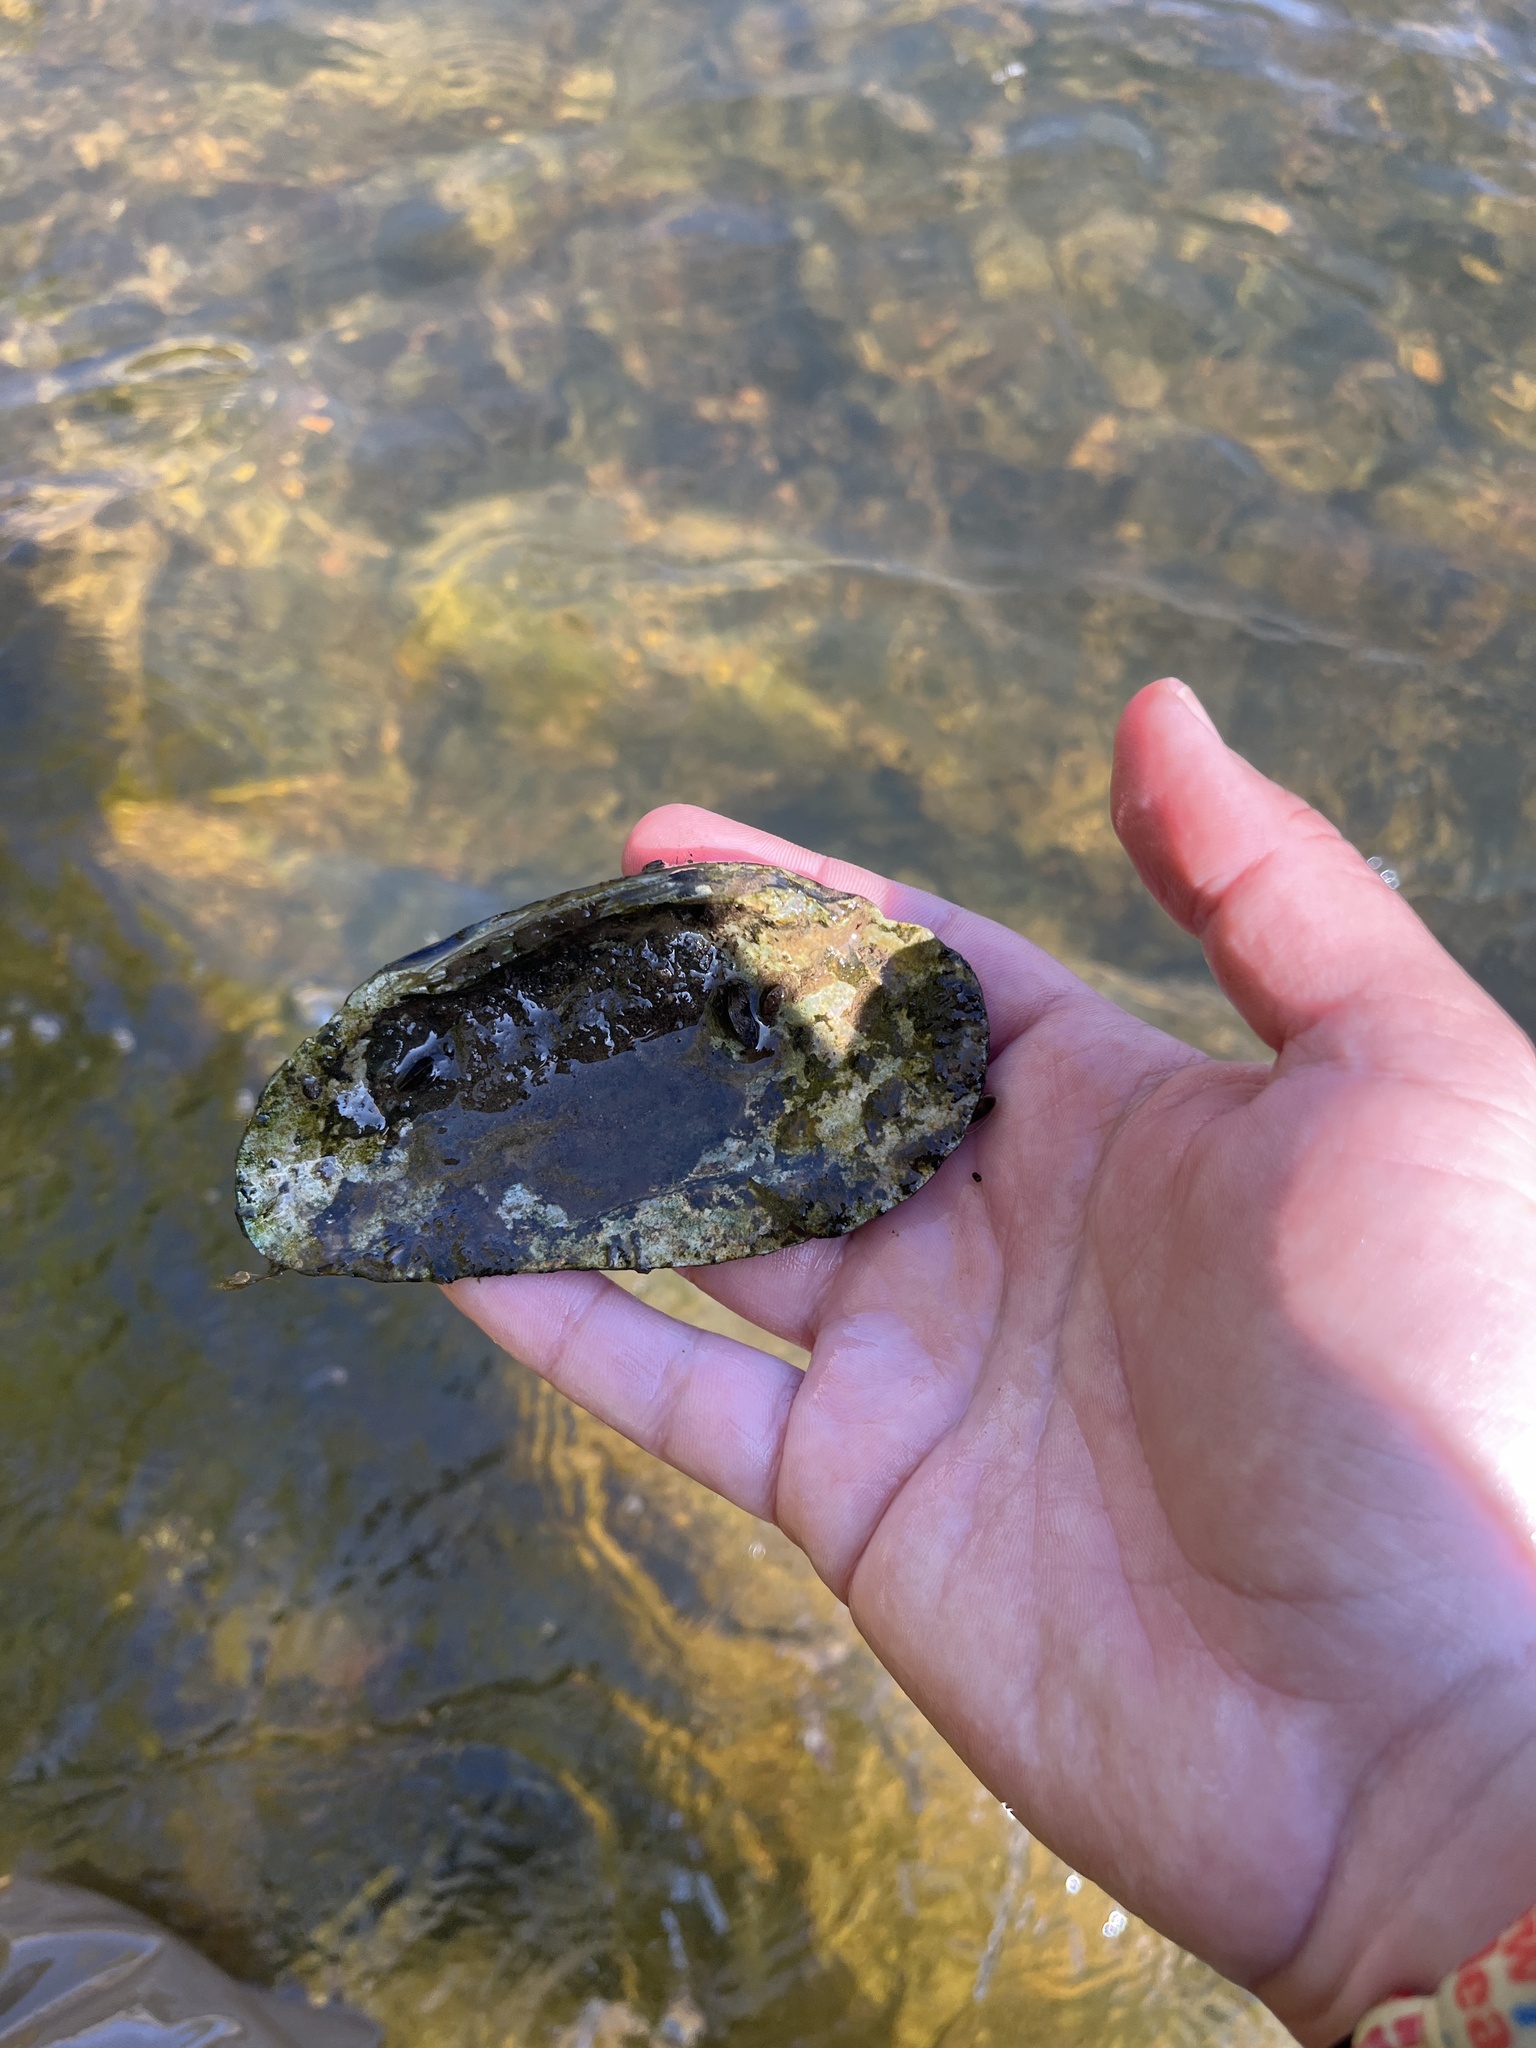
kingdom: Animalia
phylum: Mollusca
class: Bivalvia
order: Unionida
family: Unionidae
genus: Eurynia
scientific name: Eurynia dilatata
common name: Spike
